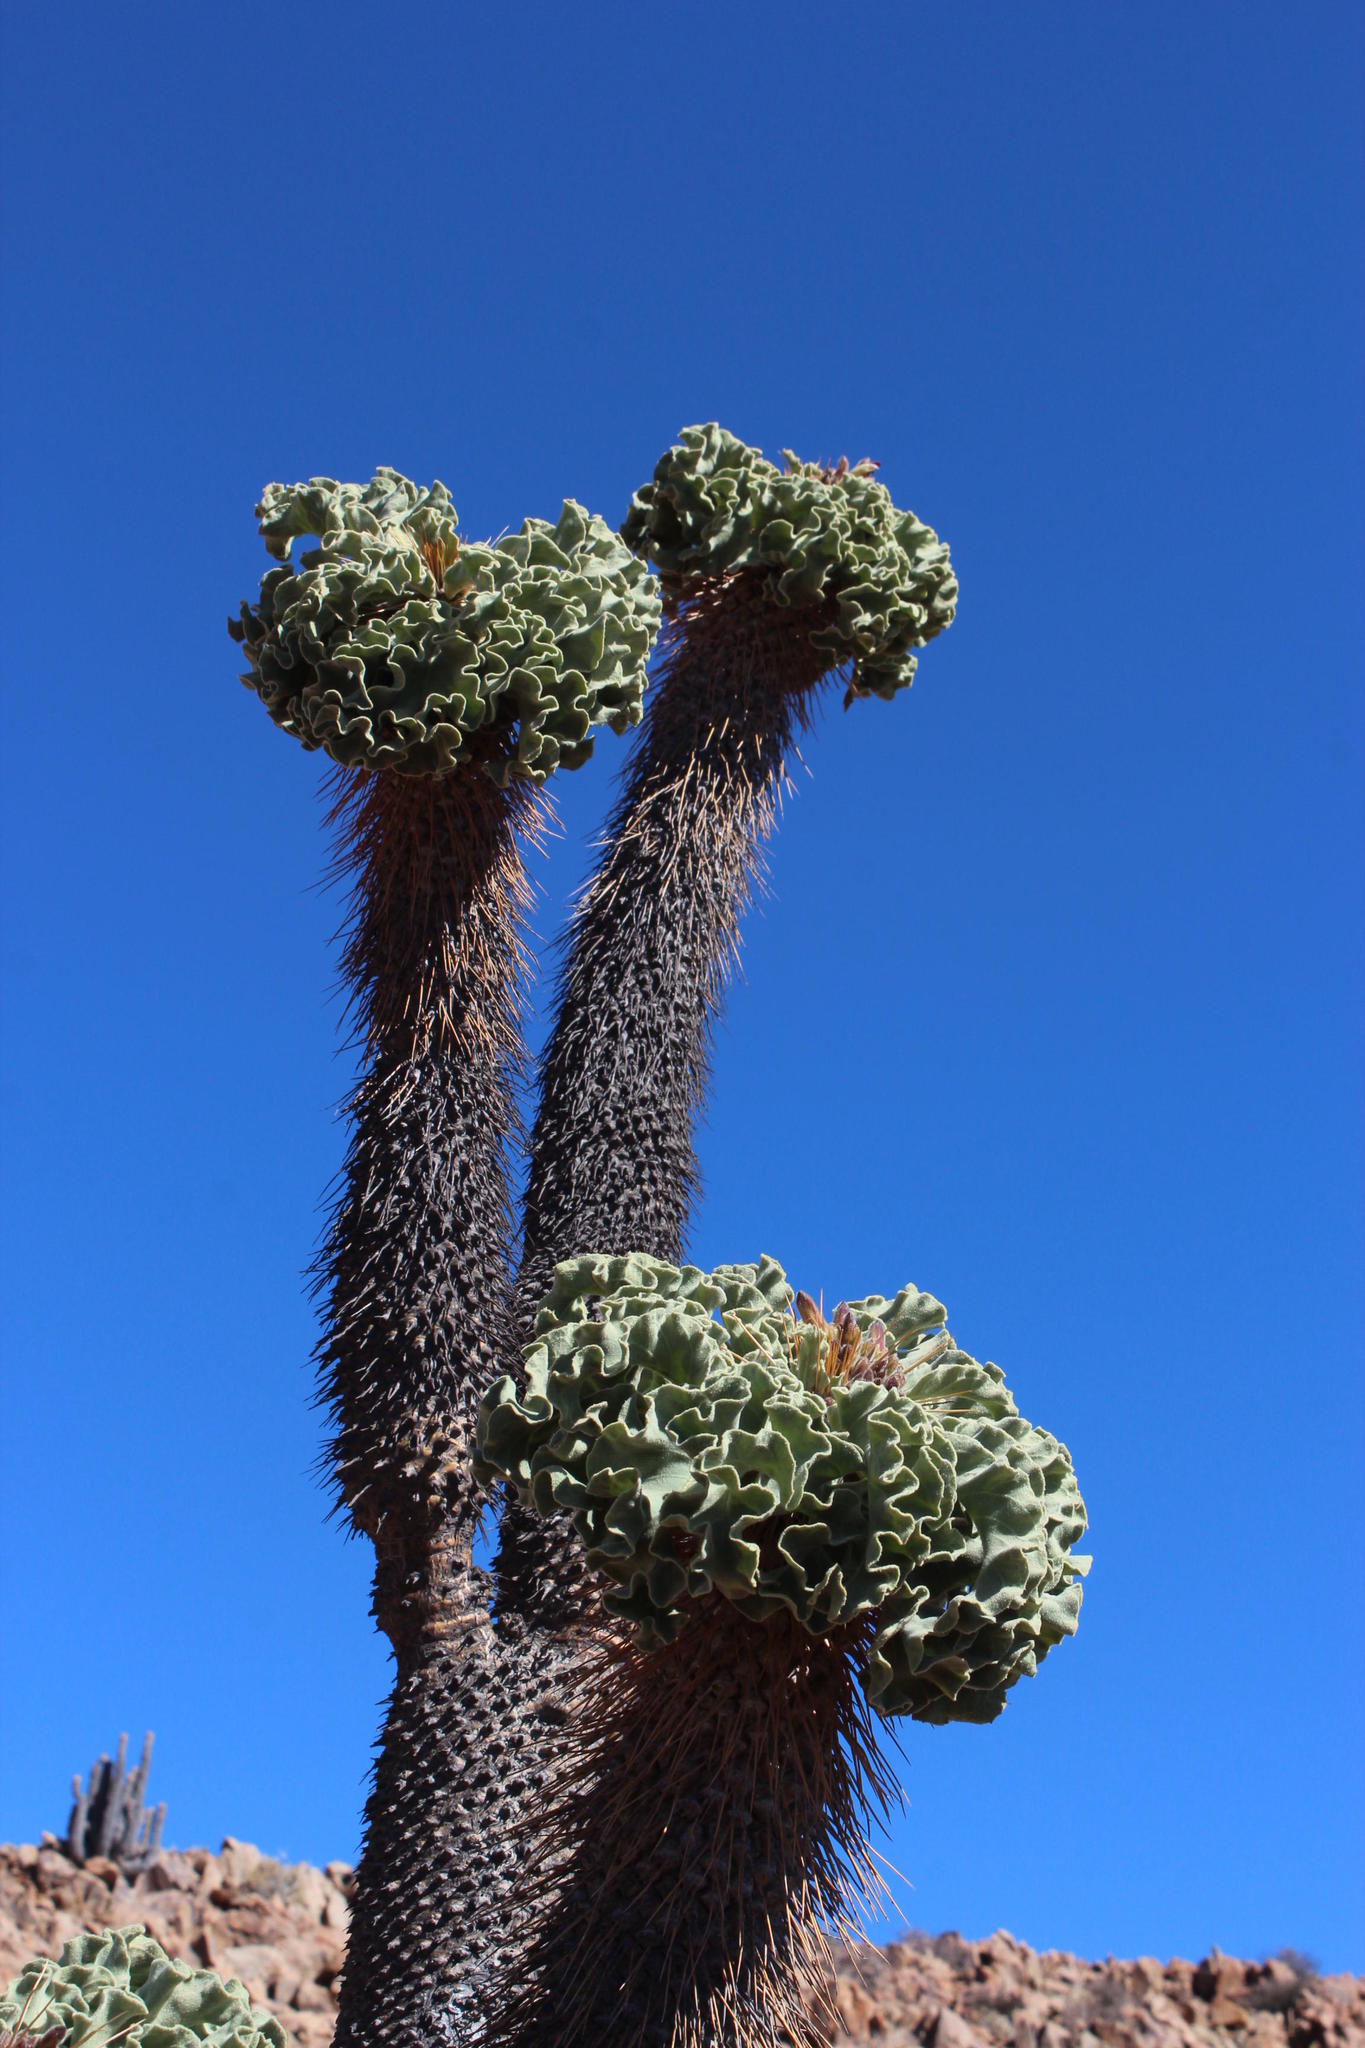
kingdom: Plantae
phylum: Tracheophyta
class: Magnoliopsida
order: Gentianales
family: Apocynaceae
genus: Pachypodium
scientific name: Pachypodium namaquanum
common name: Elephant's trunk
